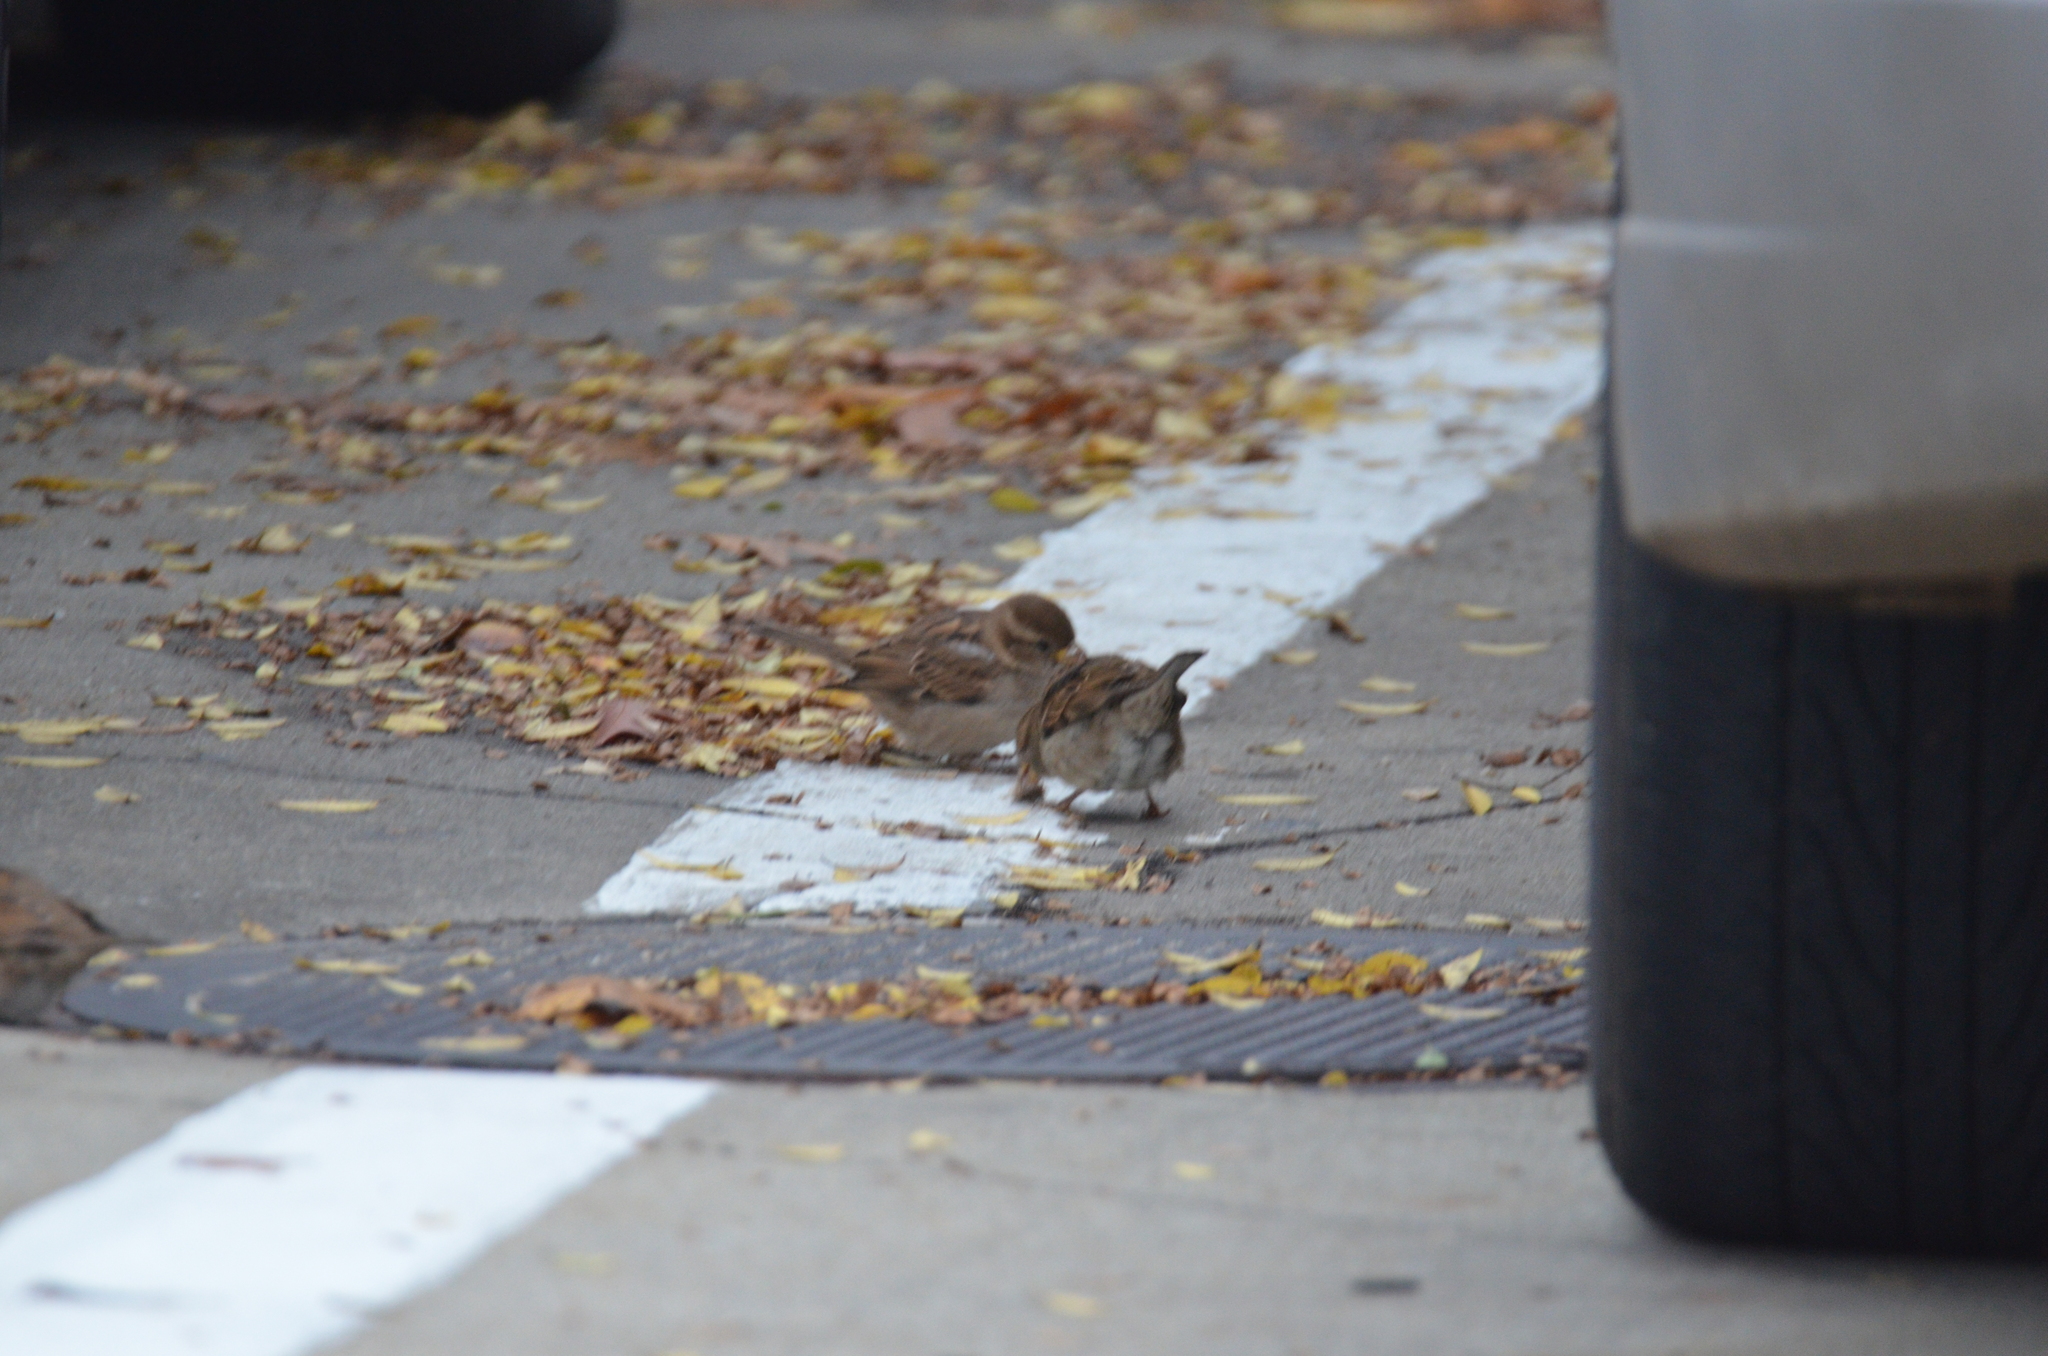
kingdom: Animalia
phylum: Chordata
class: Aves
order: Passeriformes
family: Passeridae
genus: Passer
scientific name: Passer domesticus
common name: House sparrow
